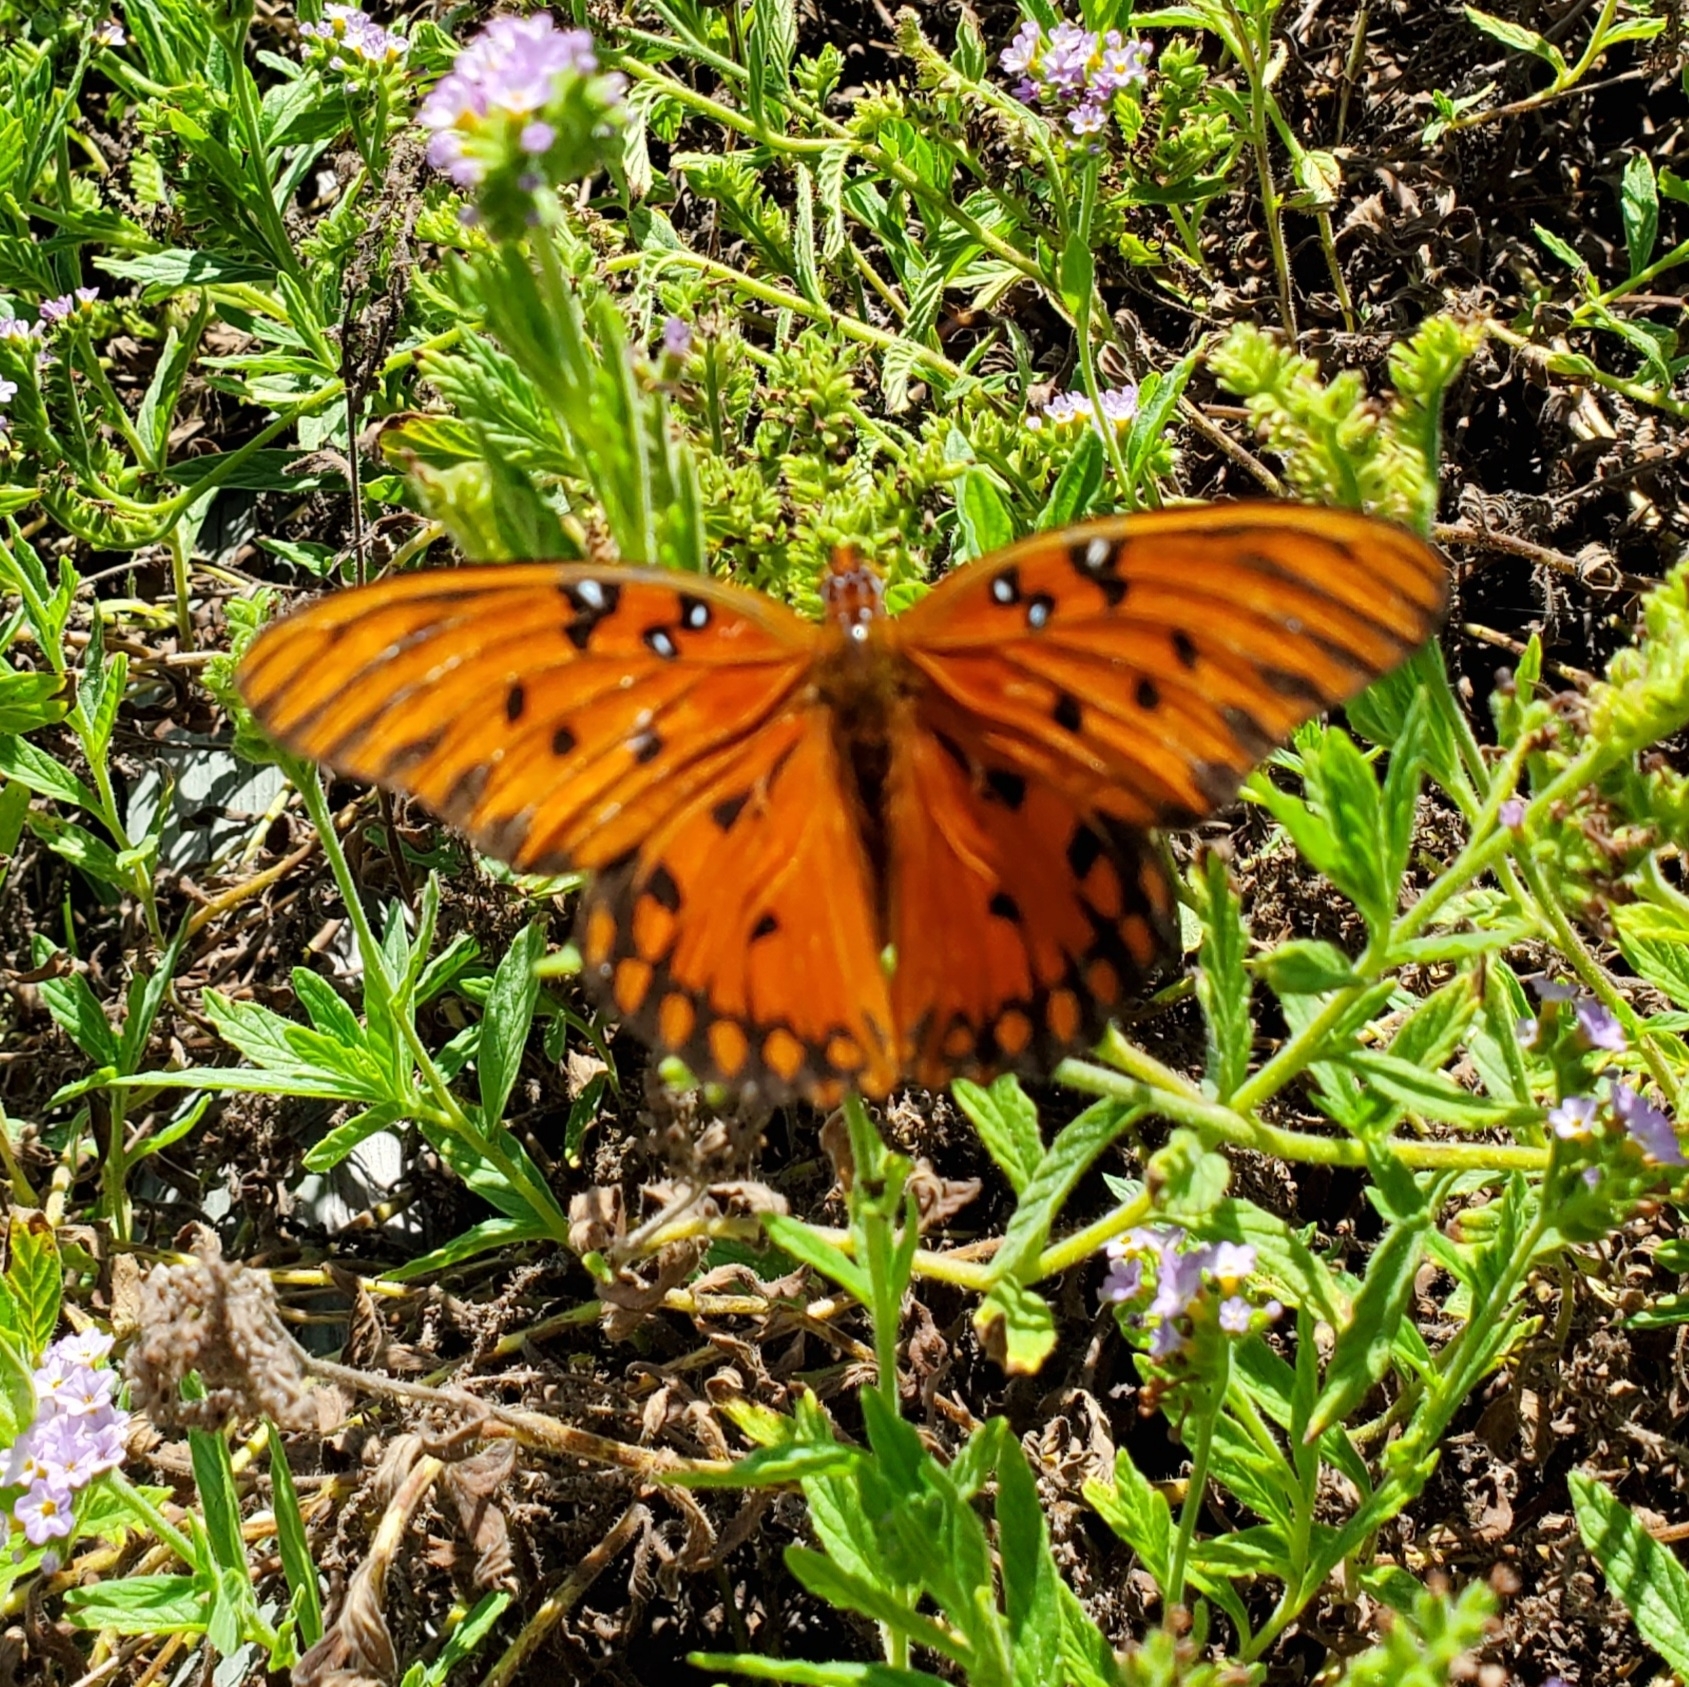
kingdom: Animalia
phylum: Arthropoda
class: Insecta
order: Lepidoptera
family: Nymphalidae
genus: Dione
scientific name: Dione vanillae
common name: Gulf fritillary
